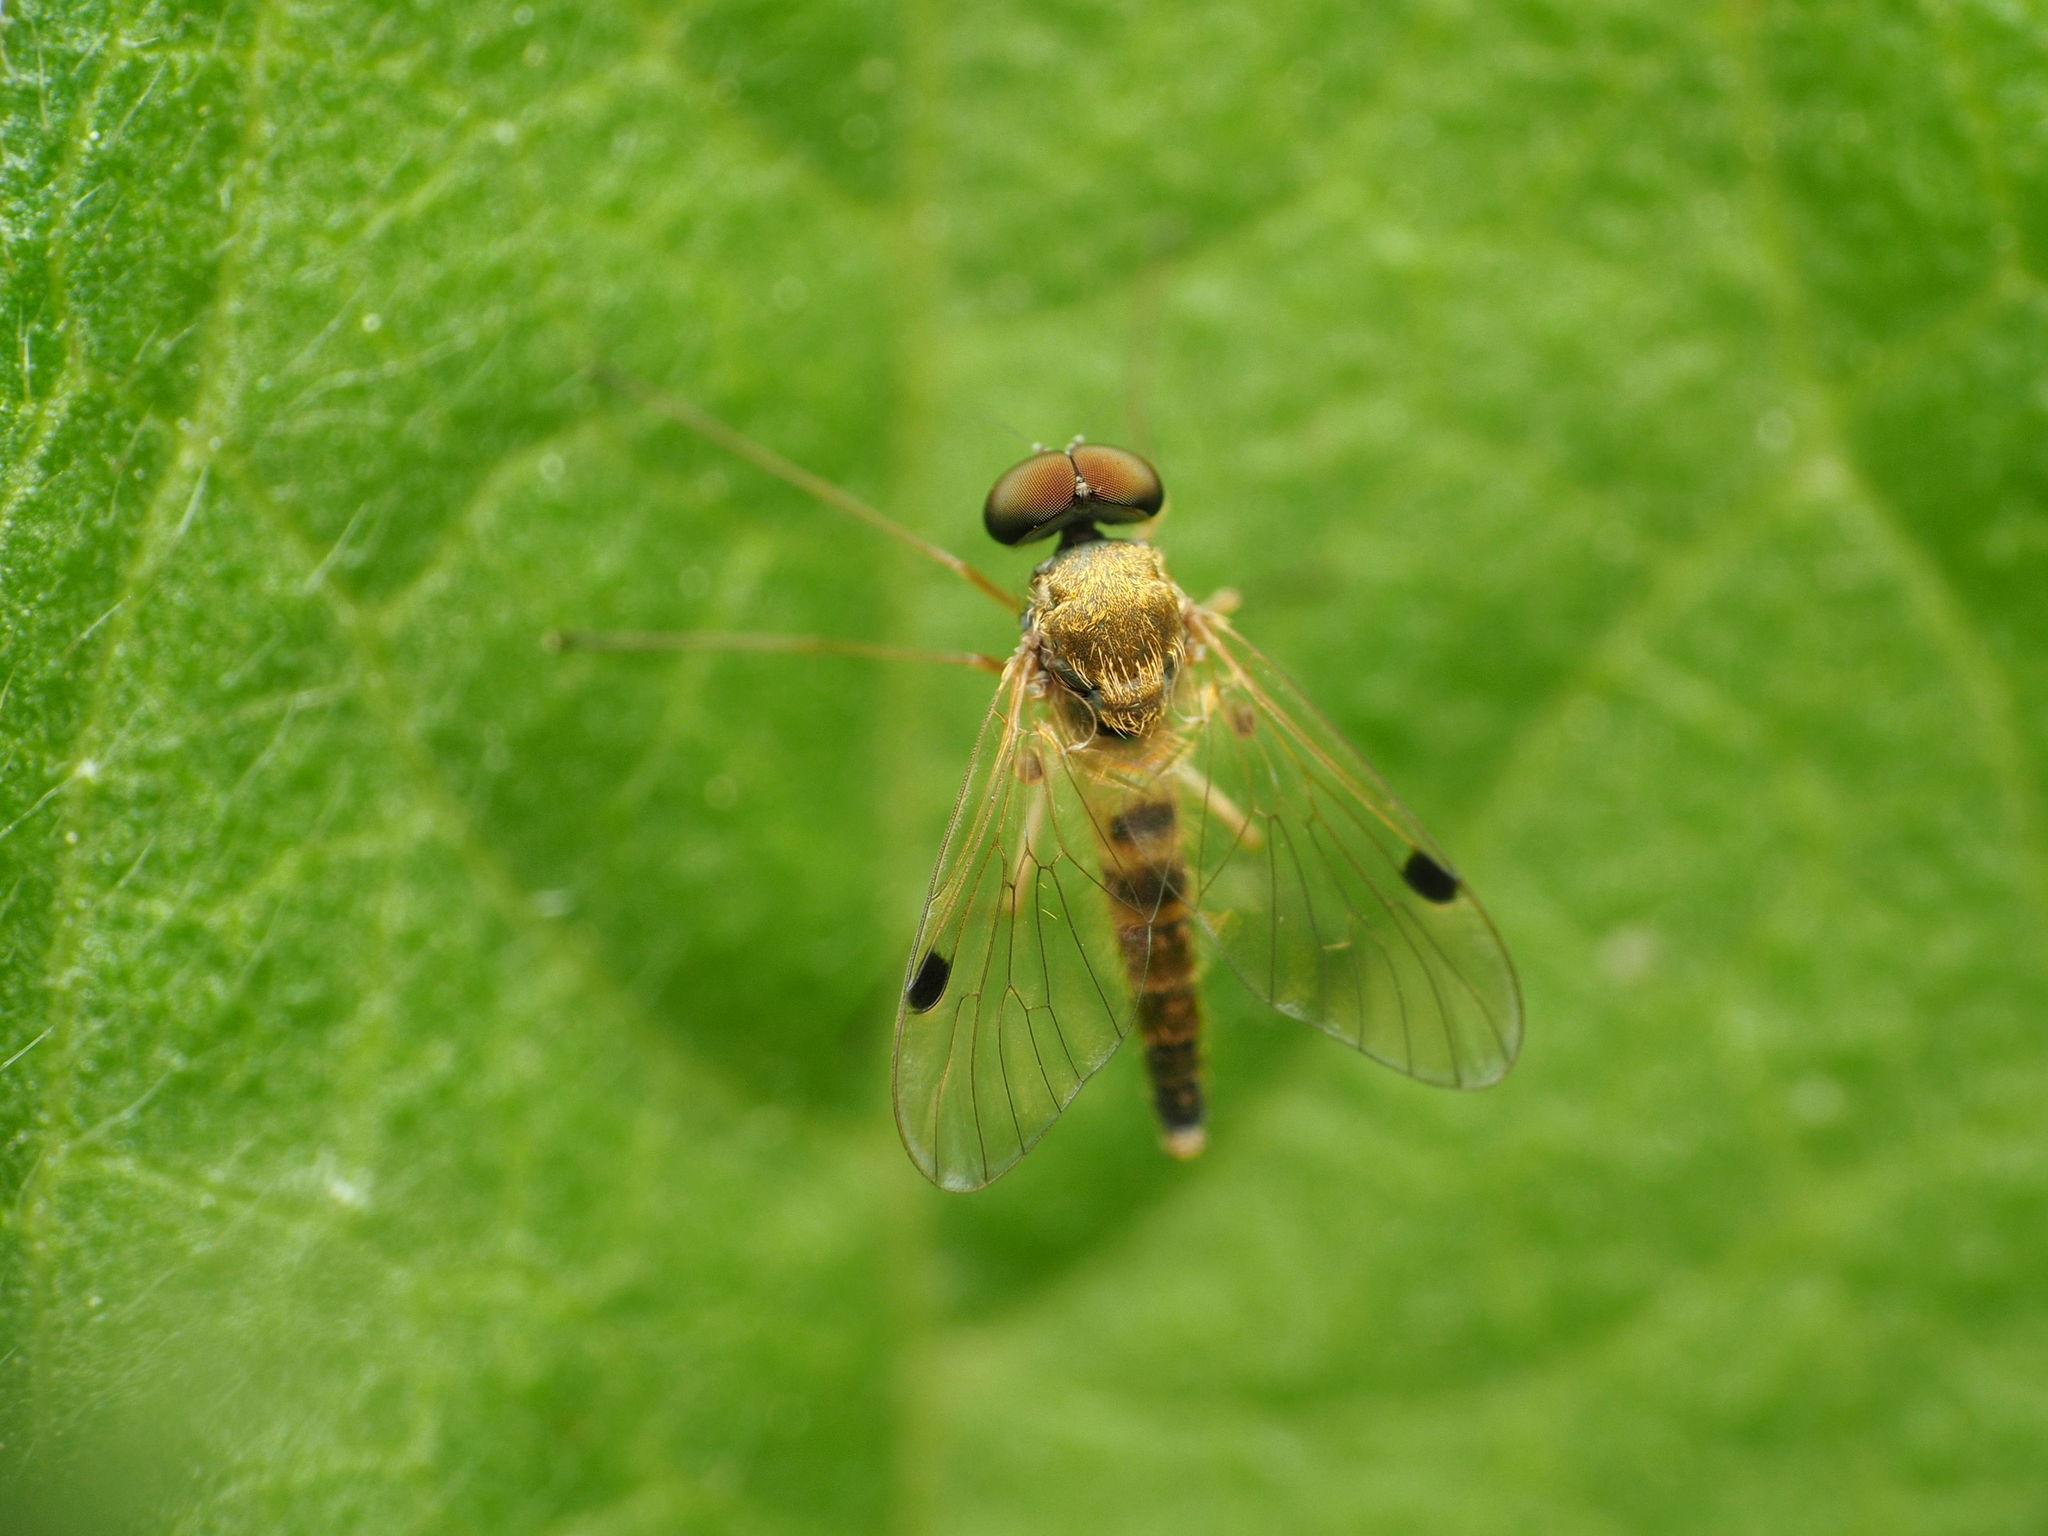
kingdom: Animalia
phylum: Arthropoda
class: Insecta
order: Diptera
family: Rhagionidae
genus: Chrysopilus
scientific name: Chrysopilus modestus
